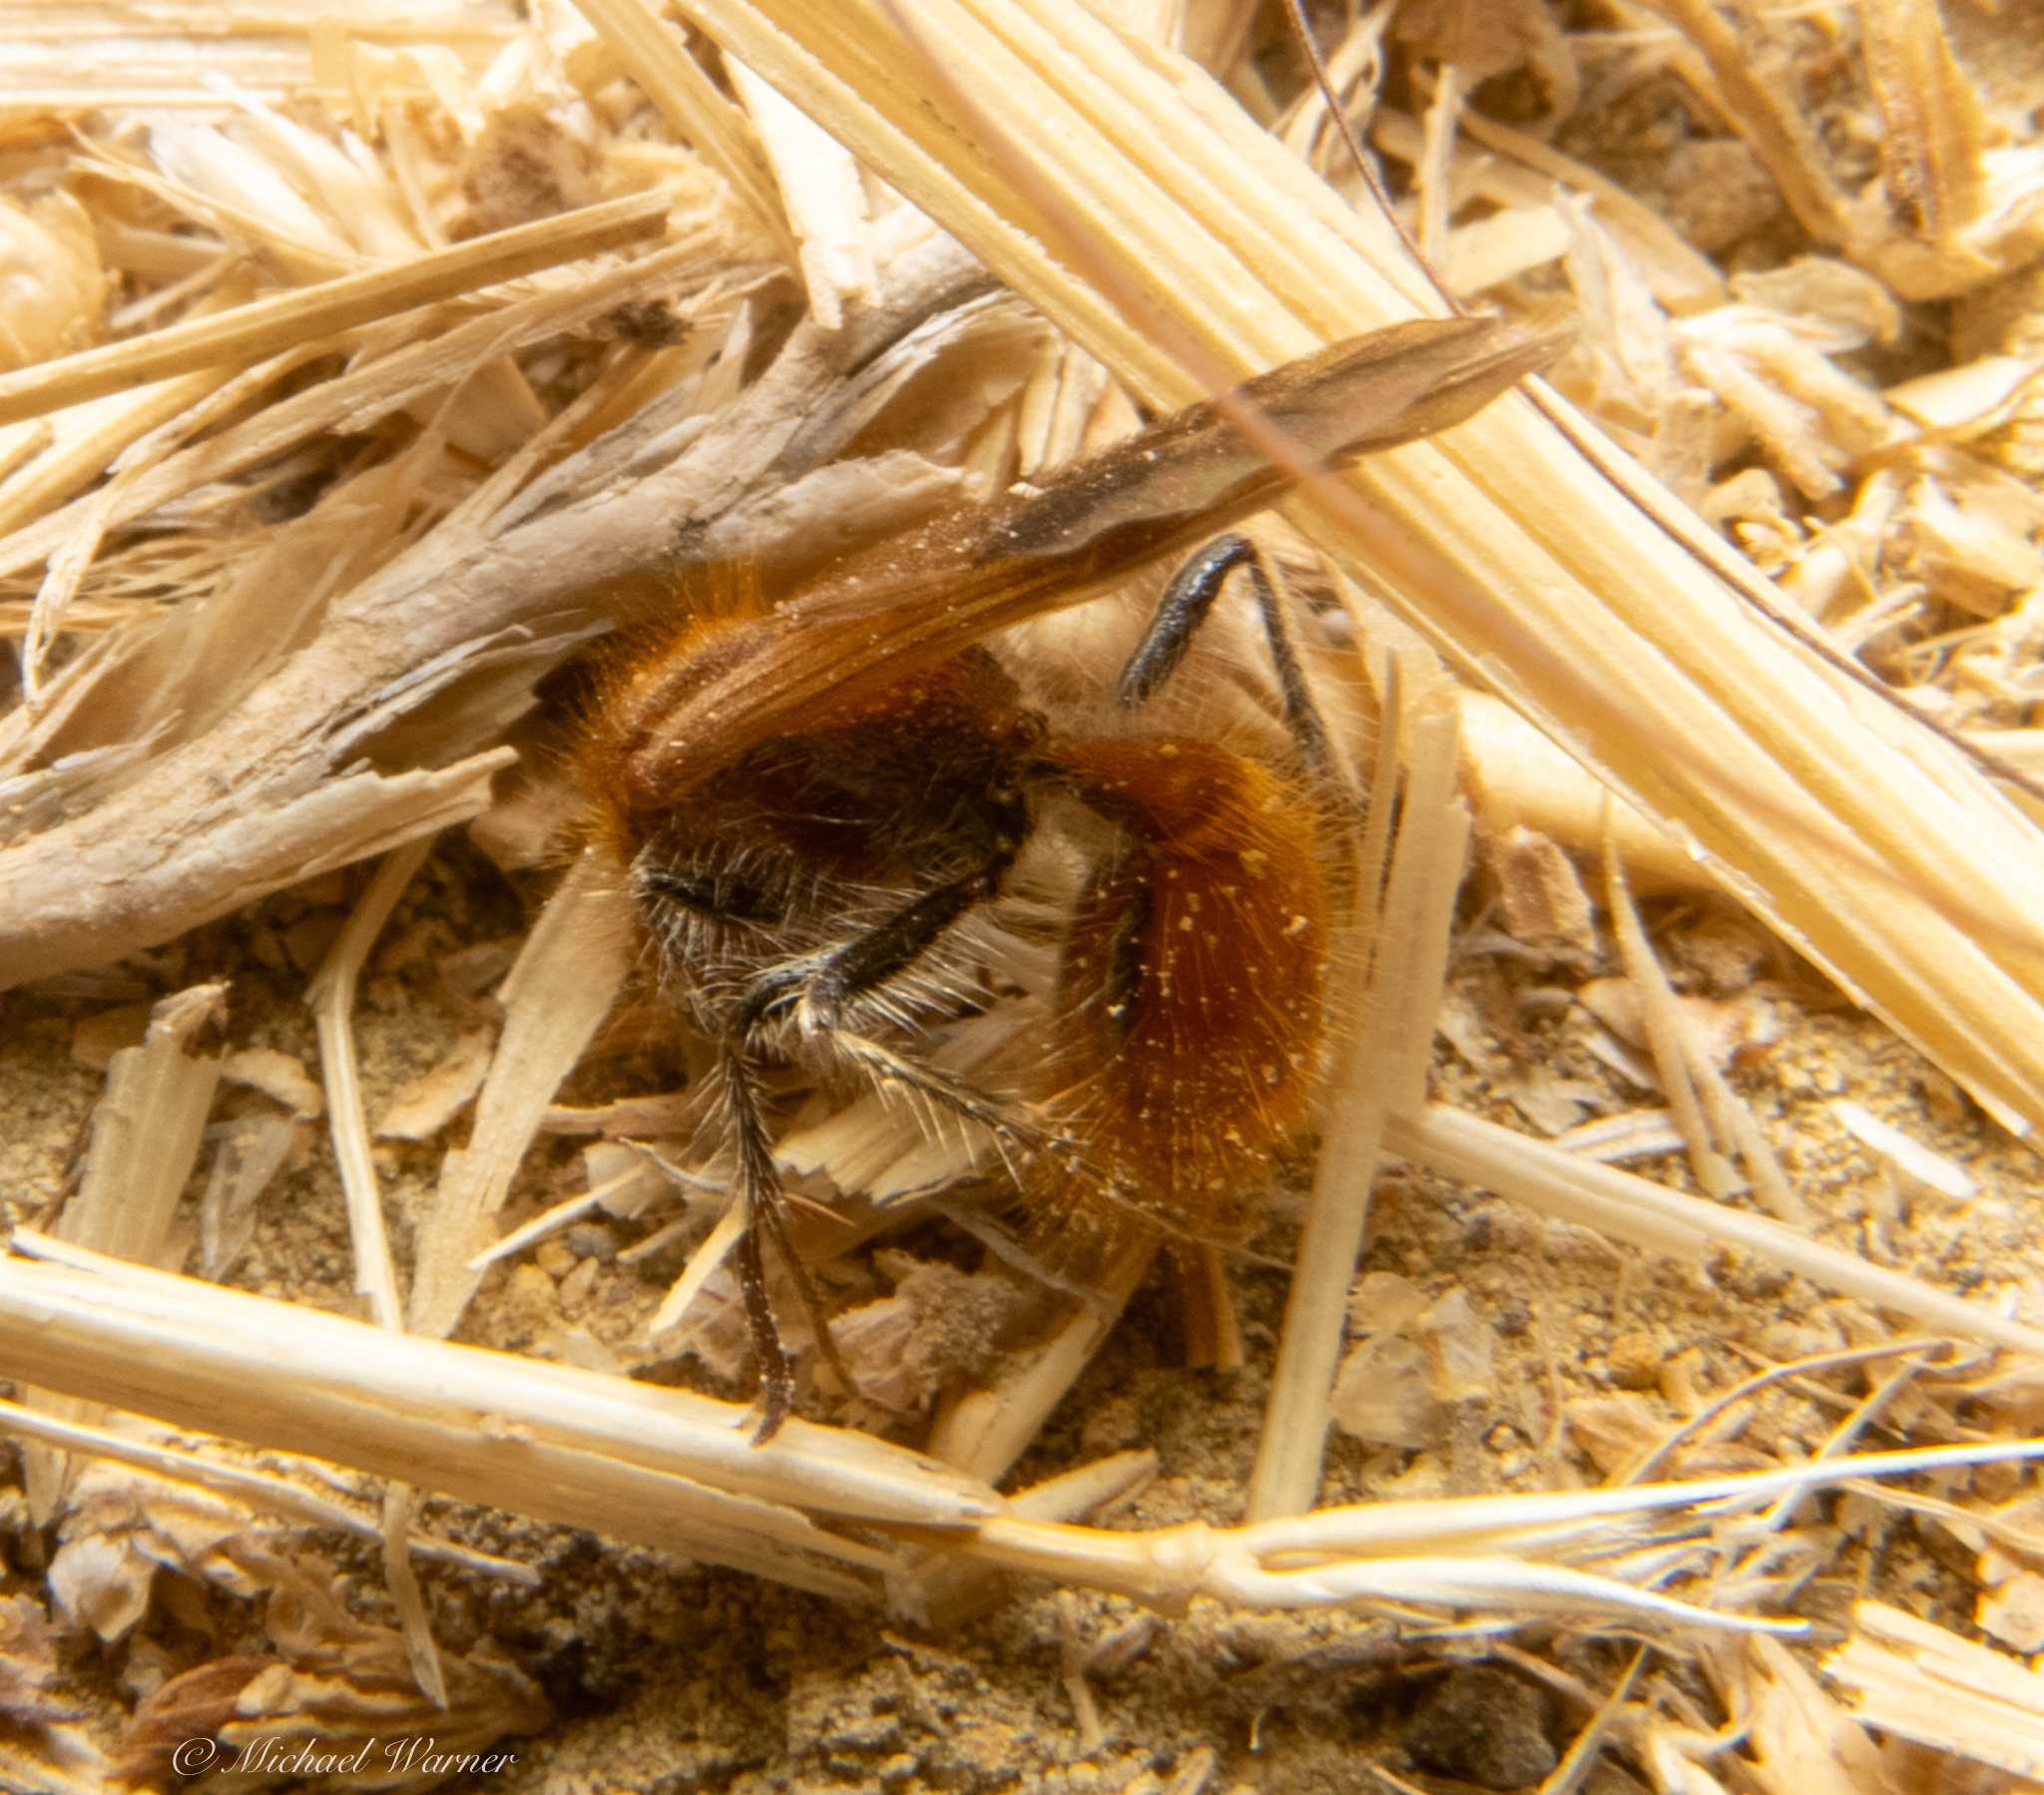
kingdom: Animalia
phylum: Arthropoda
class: Insecta
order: Hymenoptera
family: Mutillidae
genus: Sphaeropthalma
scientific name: Sphaeropthalma unicolor
